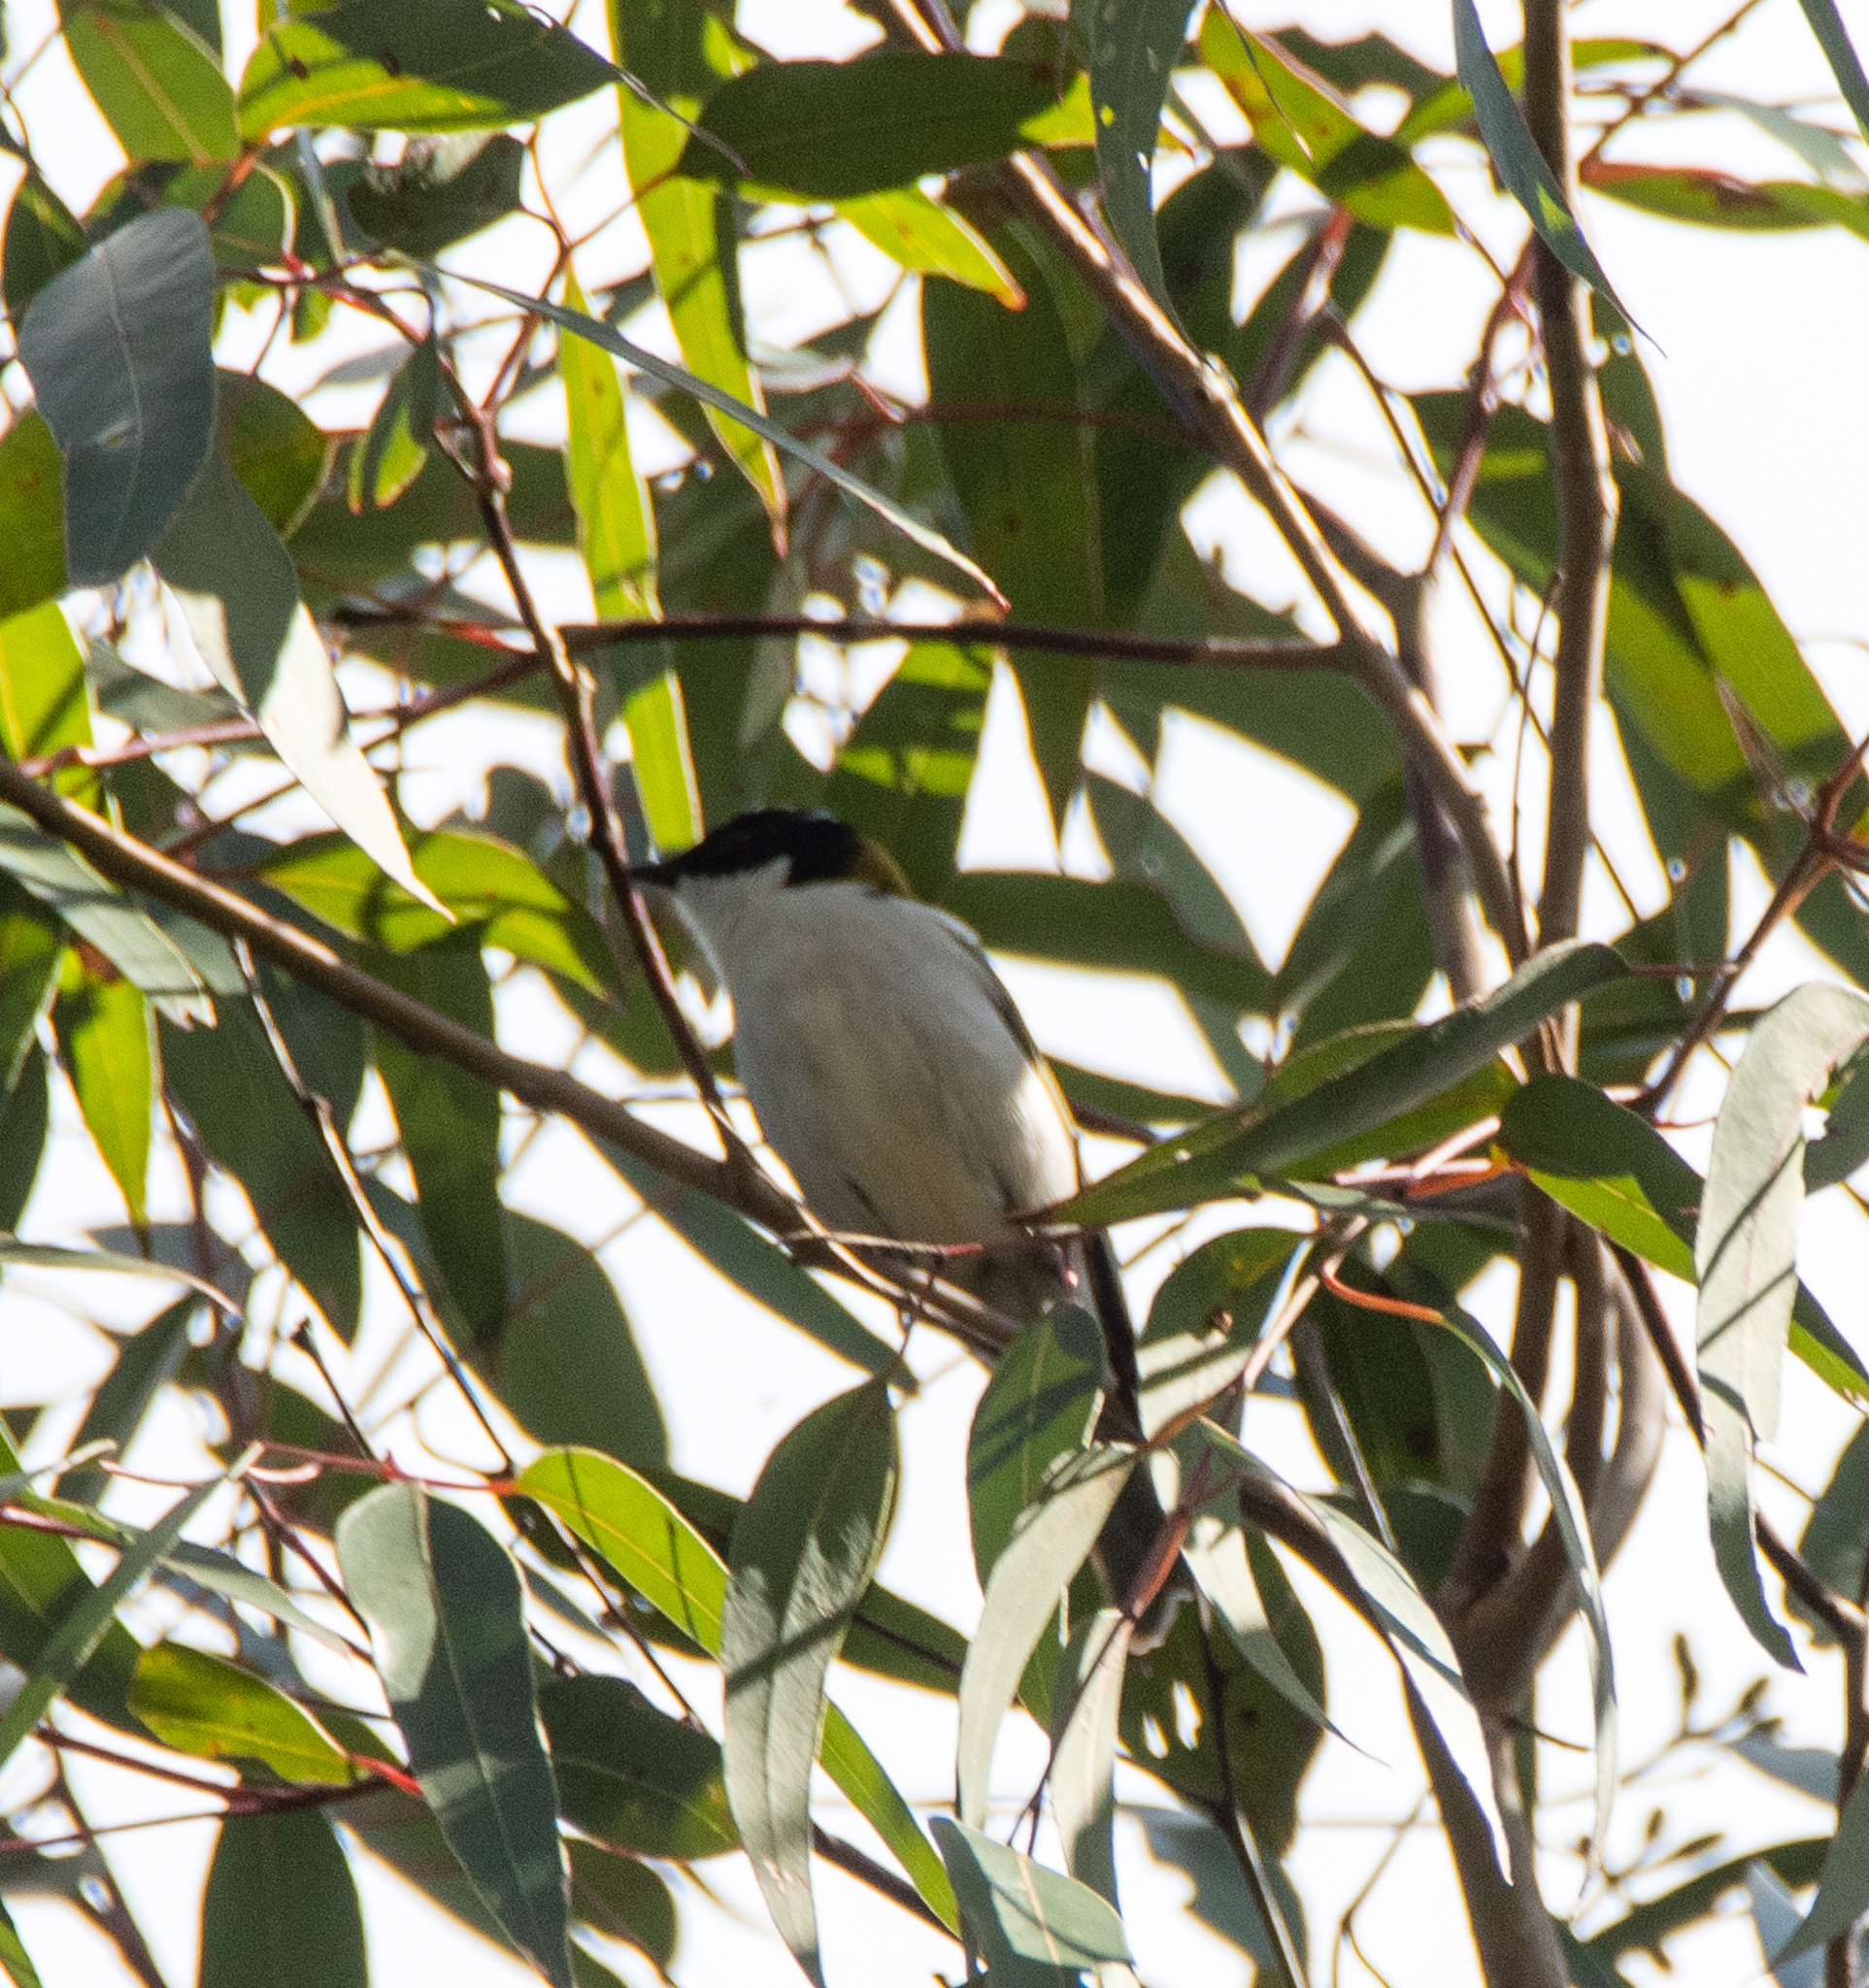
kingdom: Animalia
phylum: Chordata
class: Aves
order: Passeriformes
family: Meliphagidae
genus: Melithreptus
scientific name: Melithreptus lunatus
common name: White-naped honeyeater
